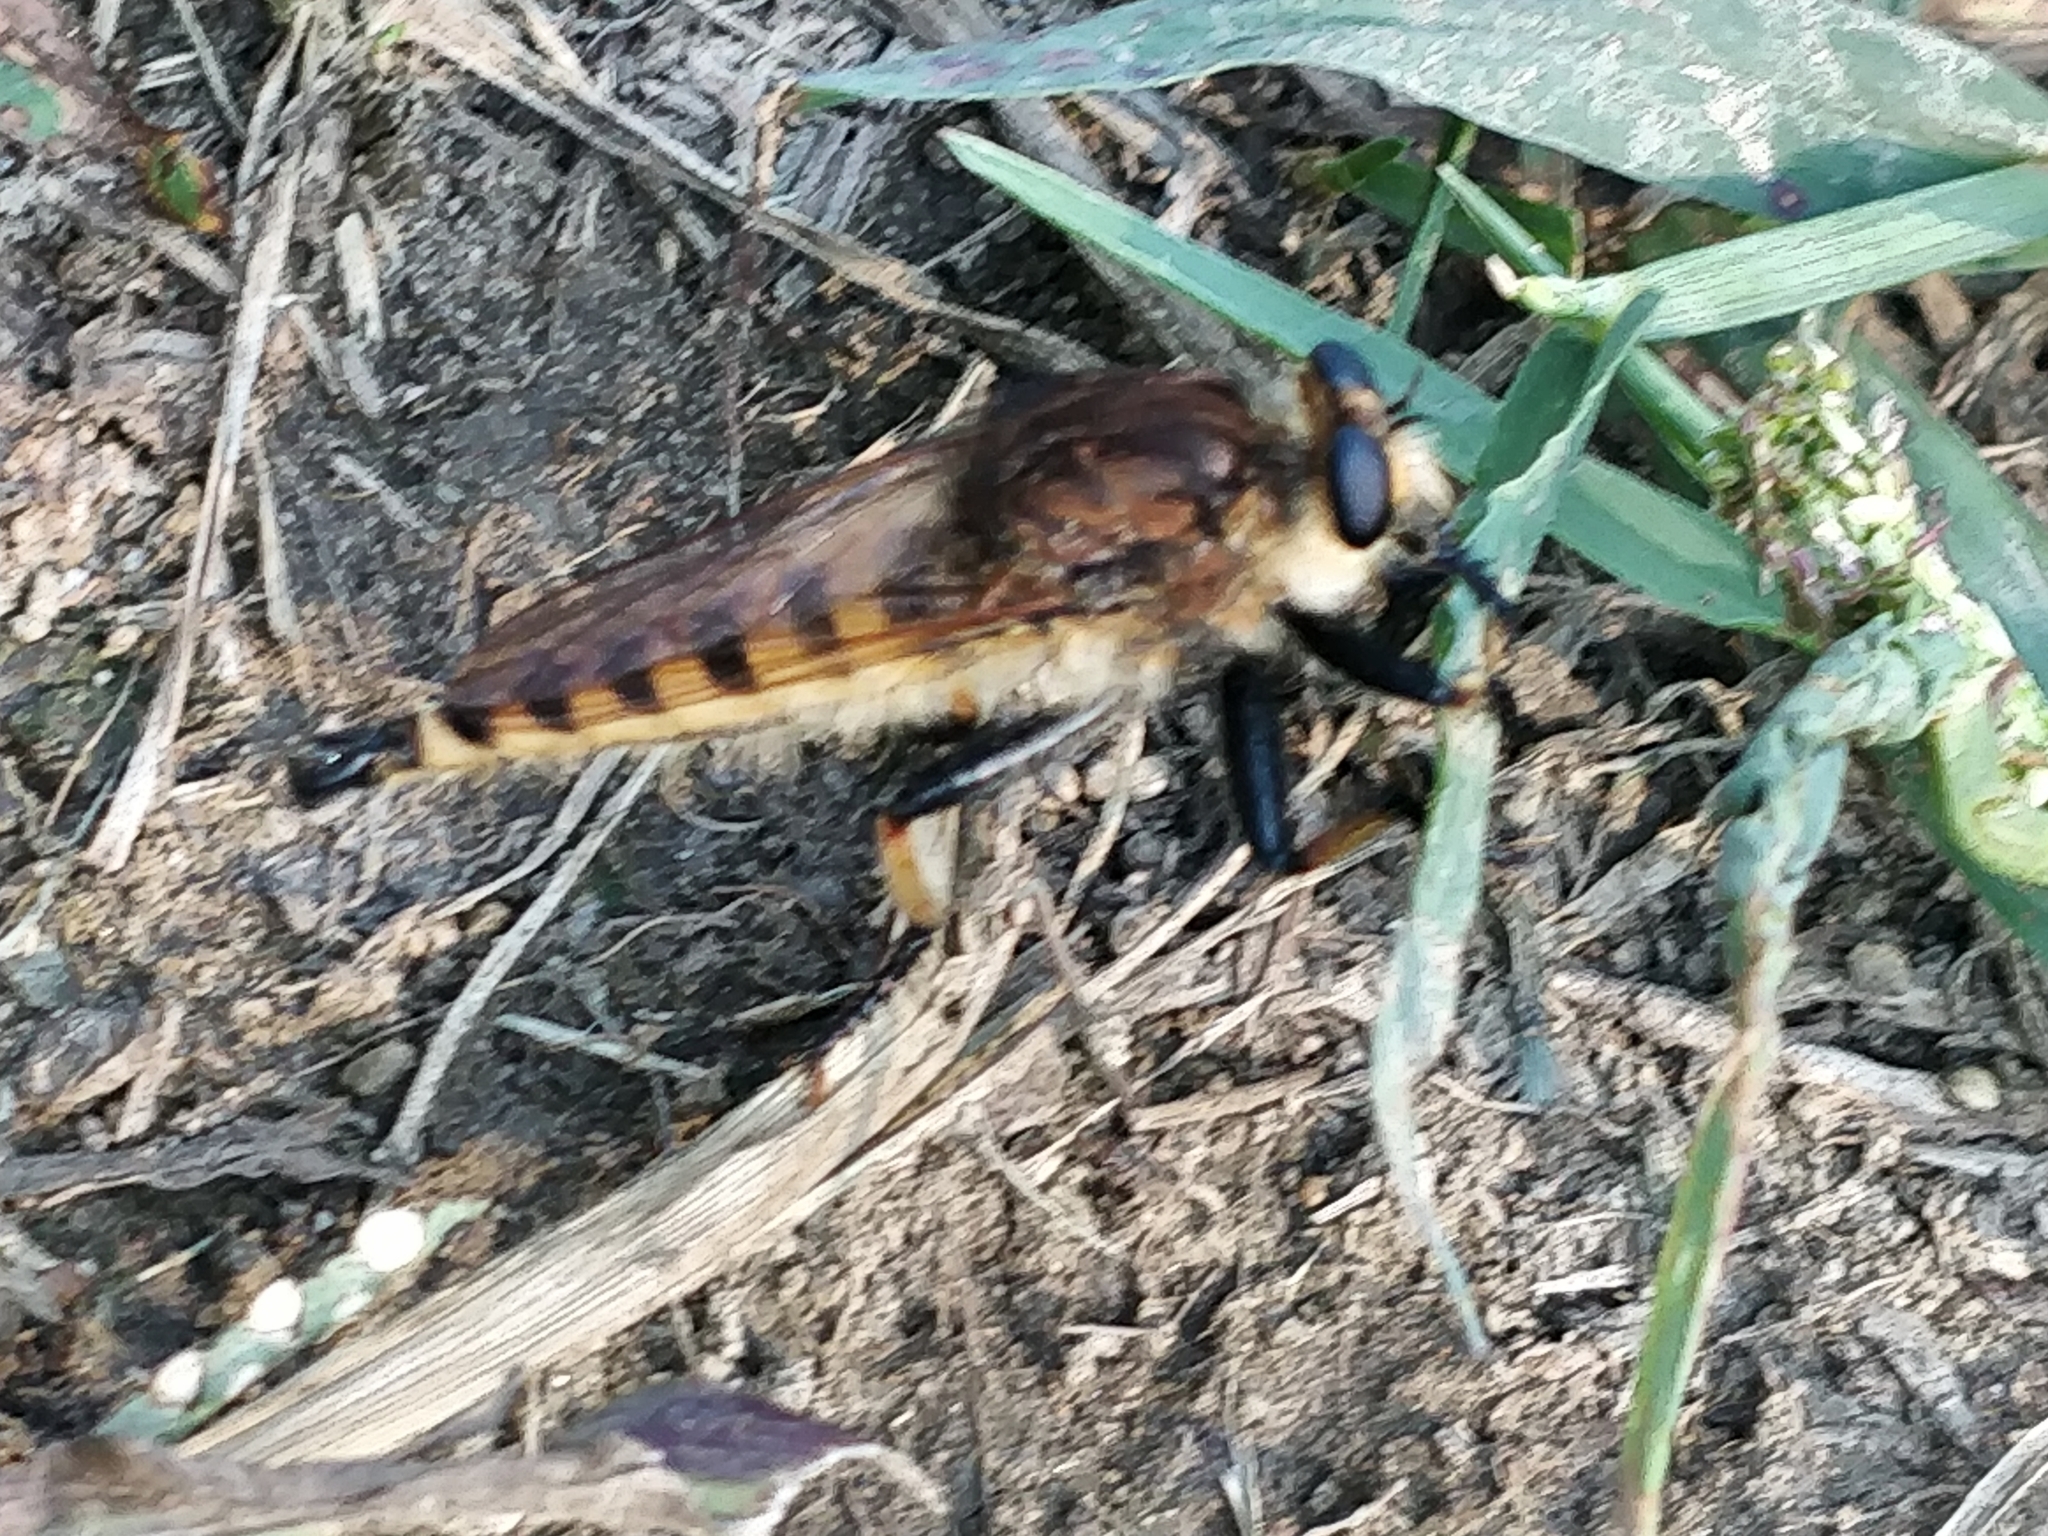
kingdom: Animalia
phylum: Arthropoda
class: Insecta
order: Diptera
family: Asilidae
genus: Promachus
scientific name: Promachus rufipes
